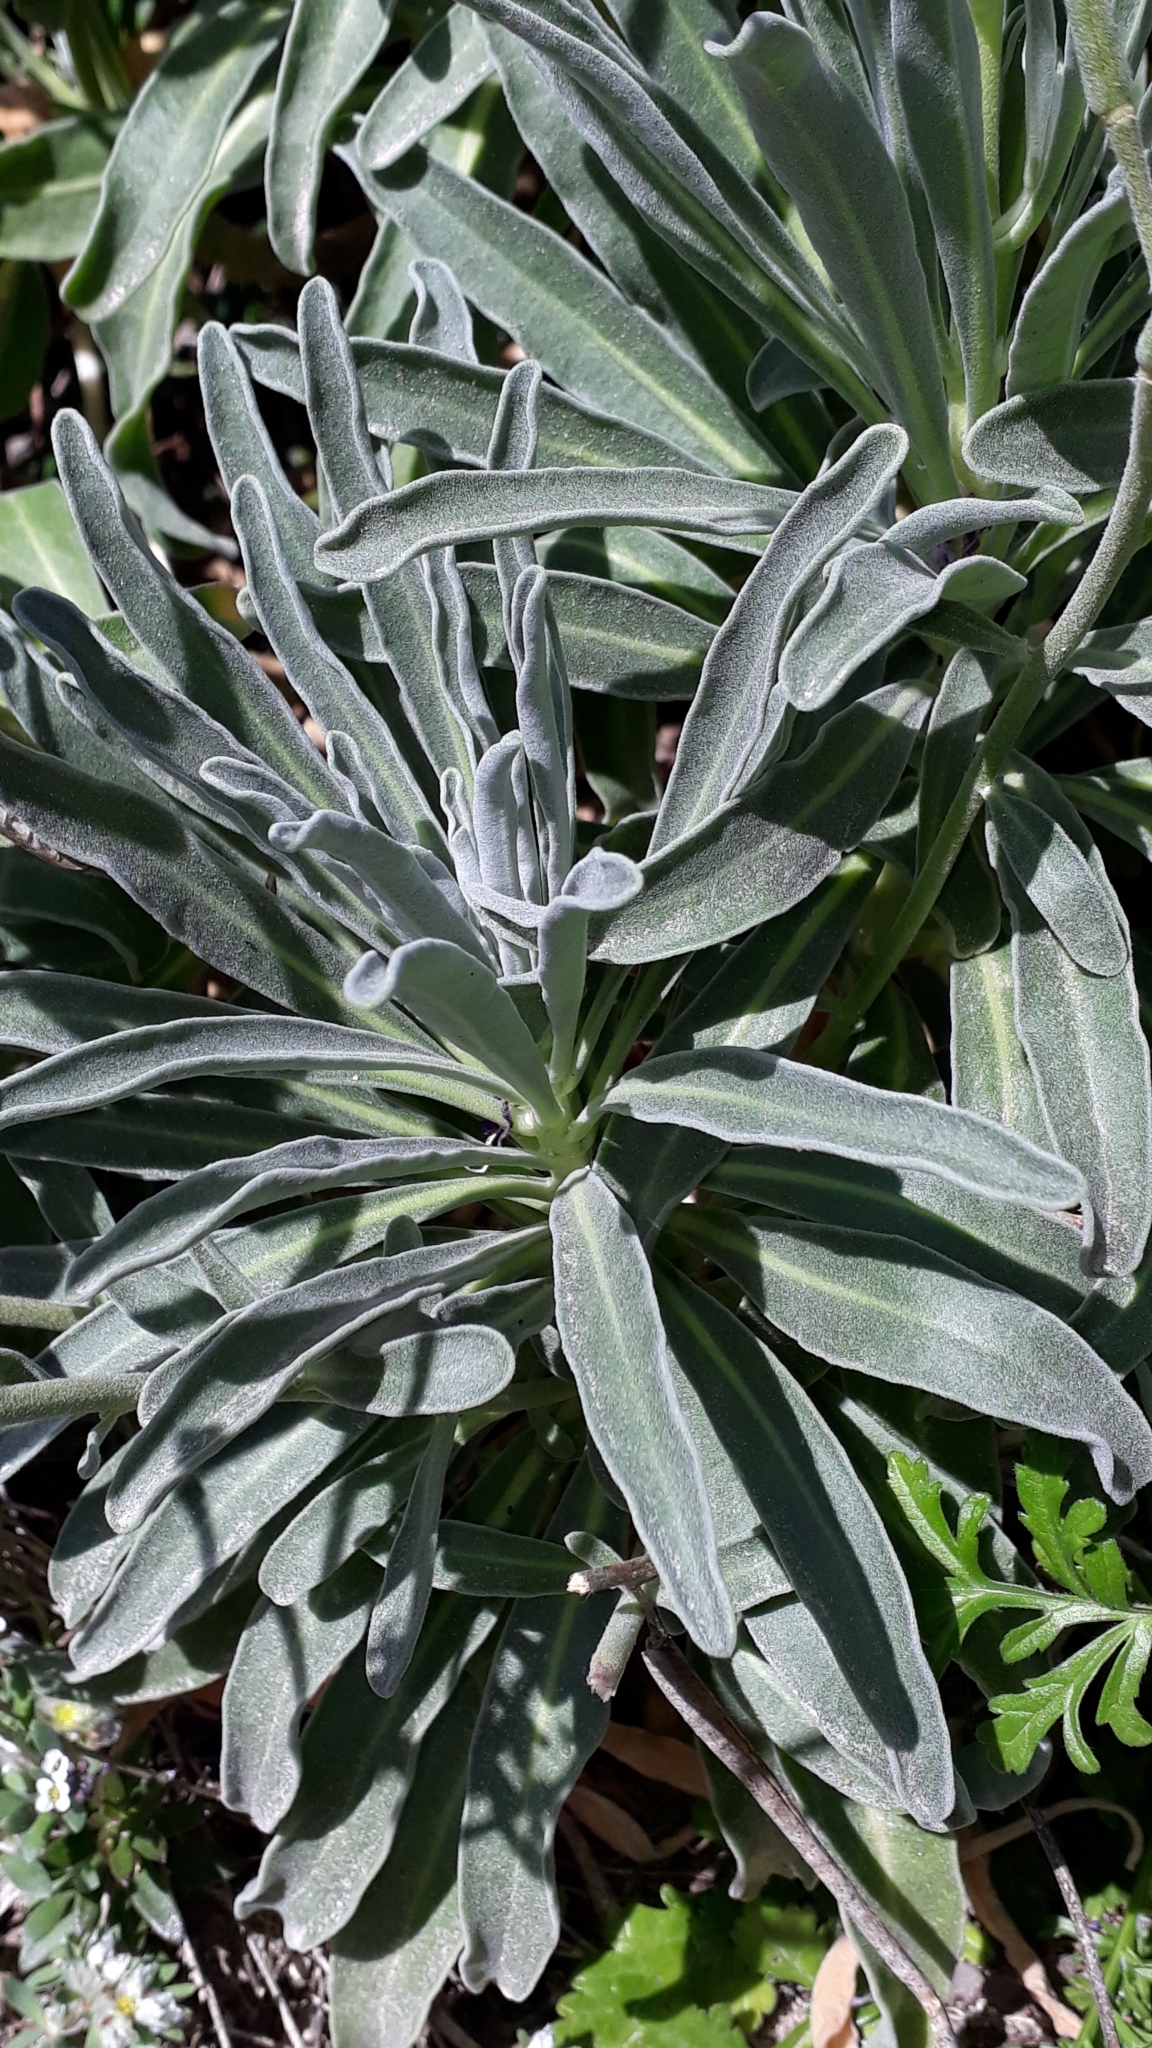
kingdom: Plantae
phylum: Tracheophyta
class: Magnoliopsida
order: Brassicales
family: Brassicaceae
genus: Matthiola
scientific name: Matthiola incana
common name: Hoary stock
